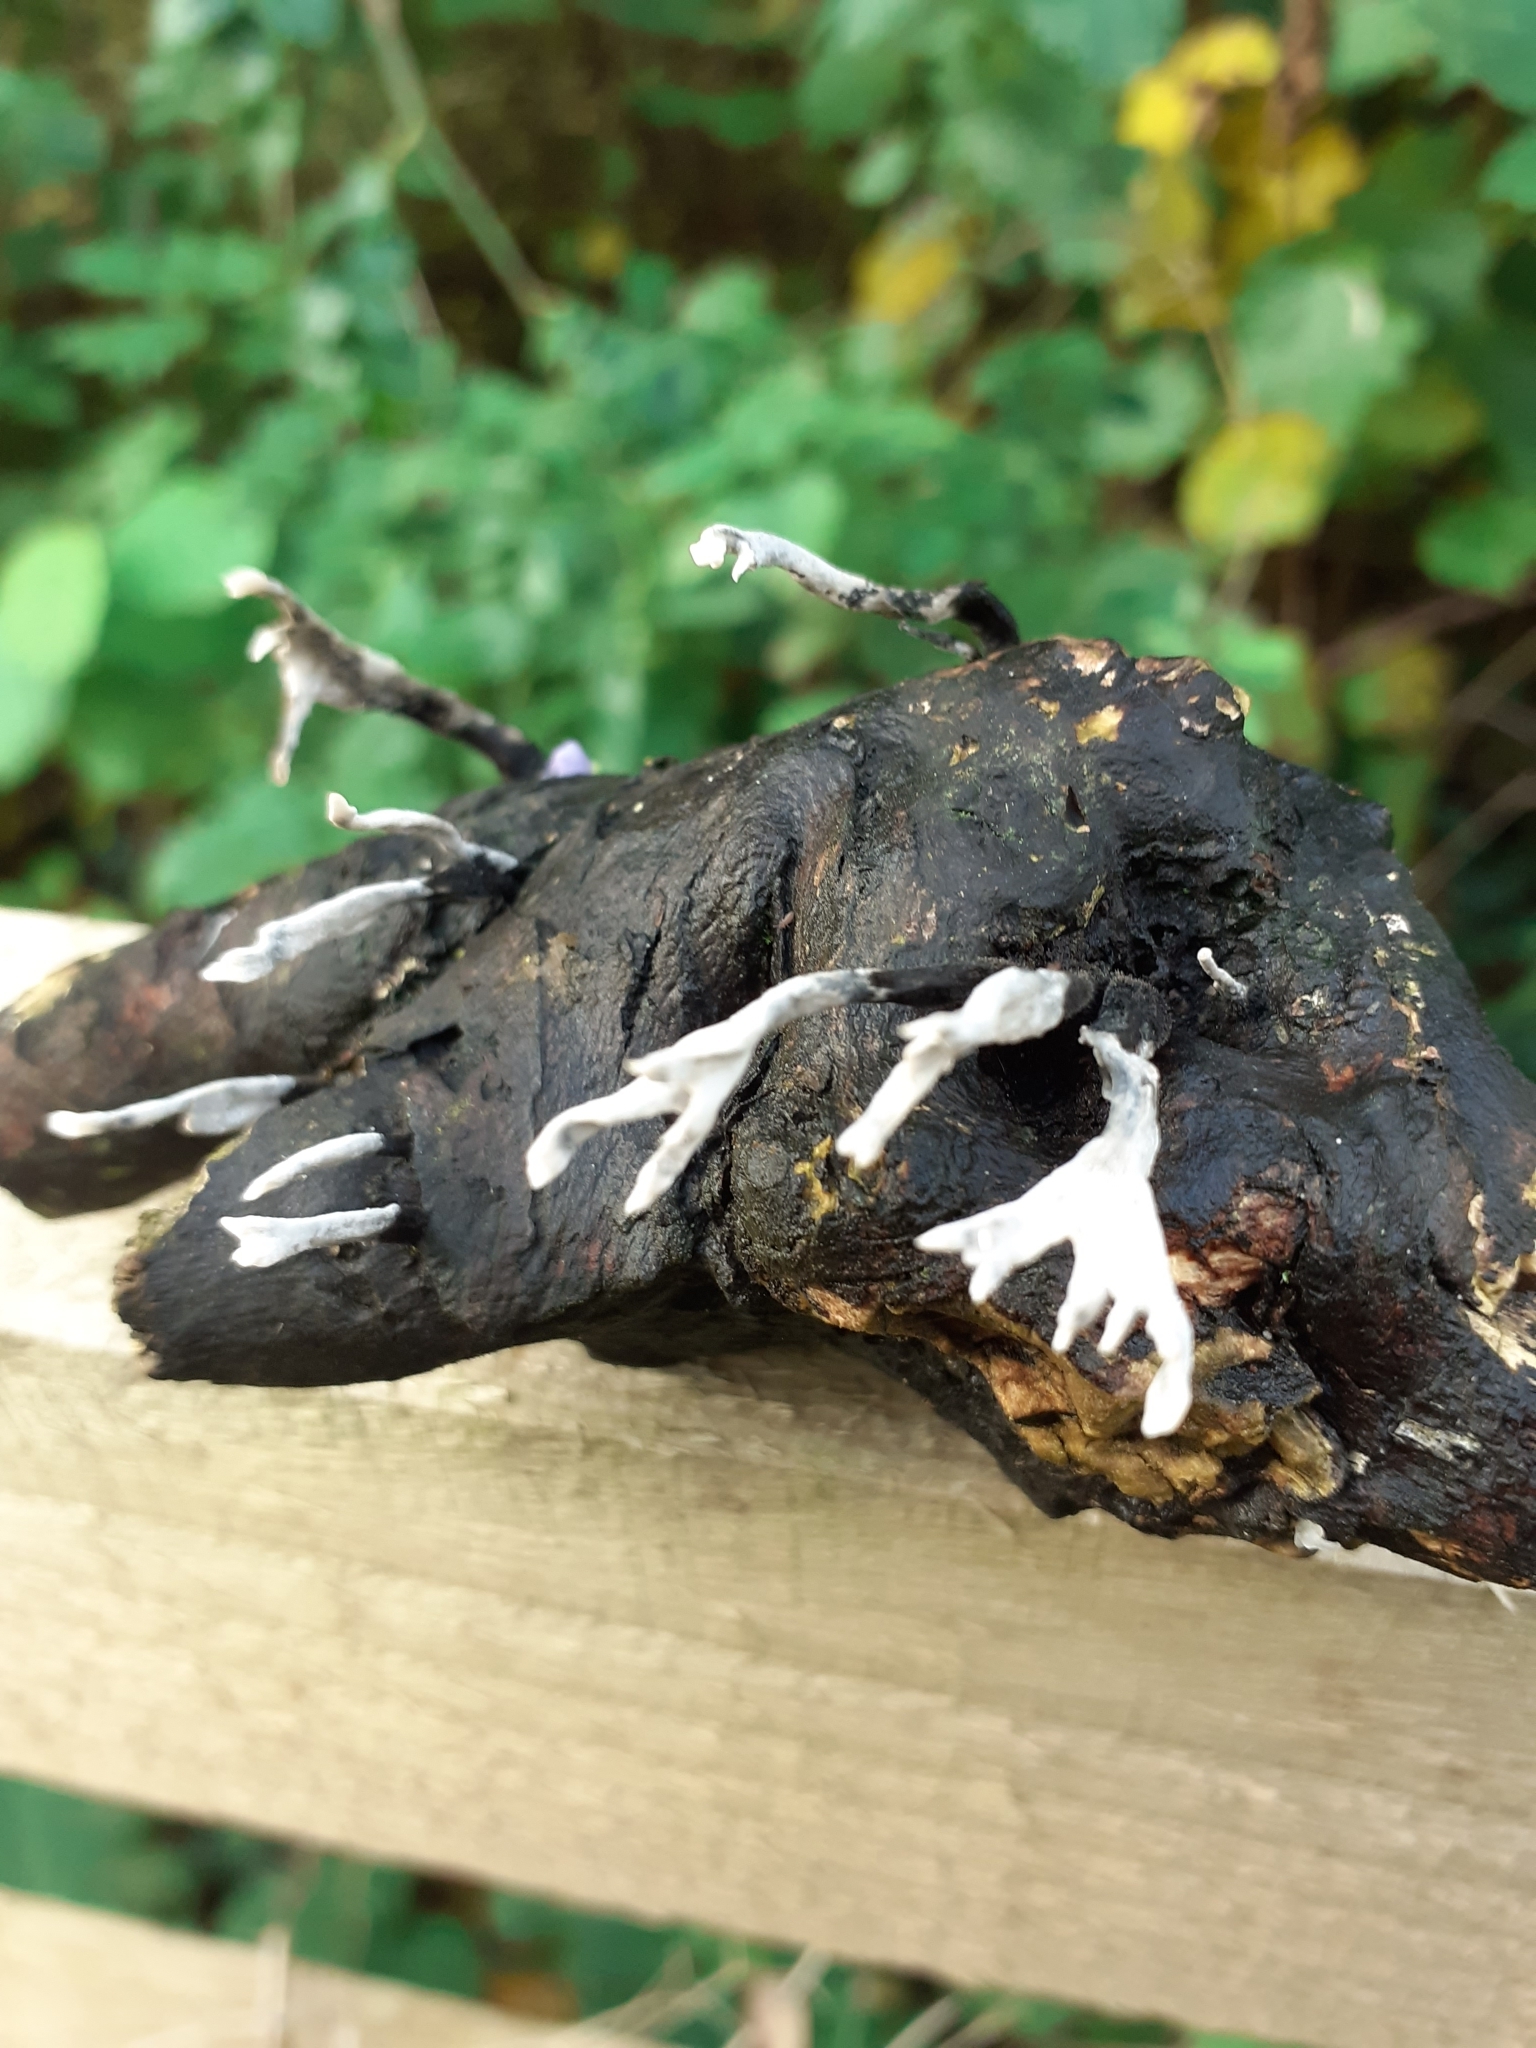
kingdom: Fungi
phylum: Ascomycota
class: Sordariomycetes
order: Xylariales
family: Xylariaceae
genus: Xylaria
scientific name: Xylaria hypoxylon
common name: Candle-snuff fungus
